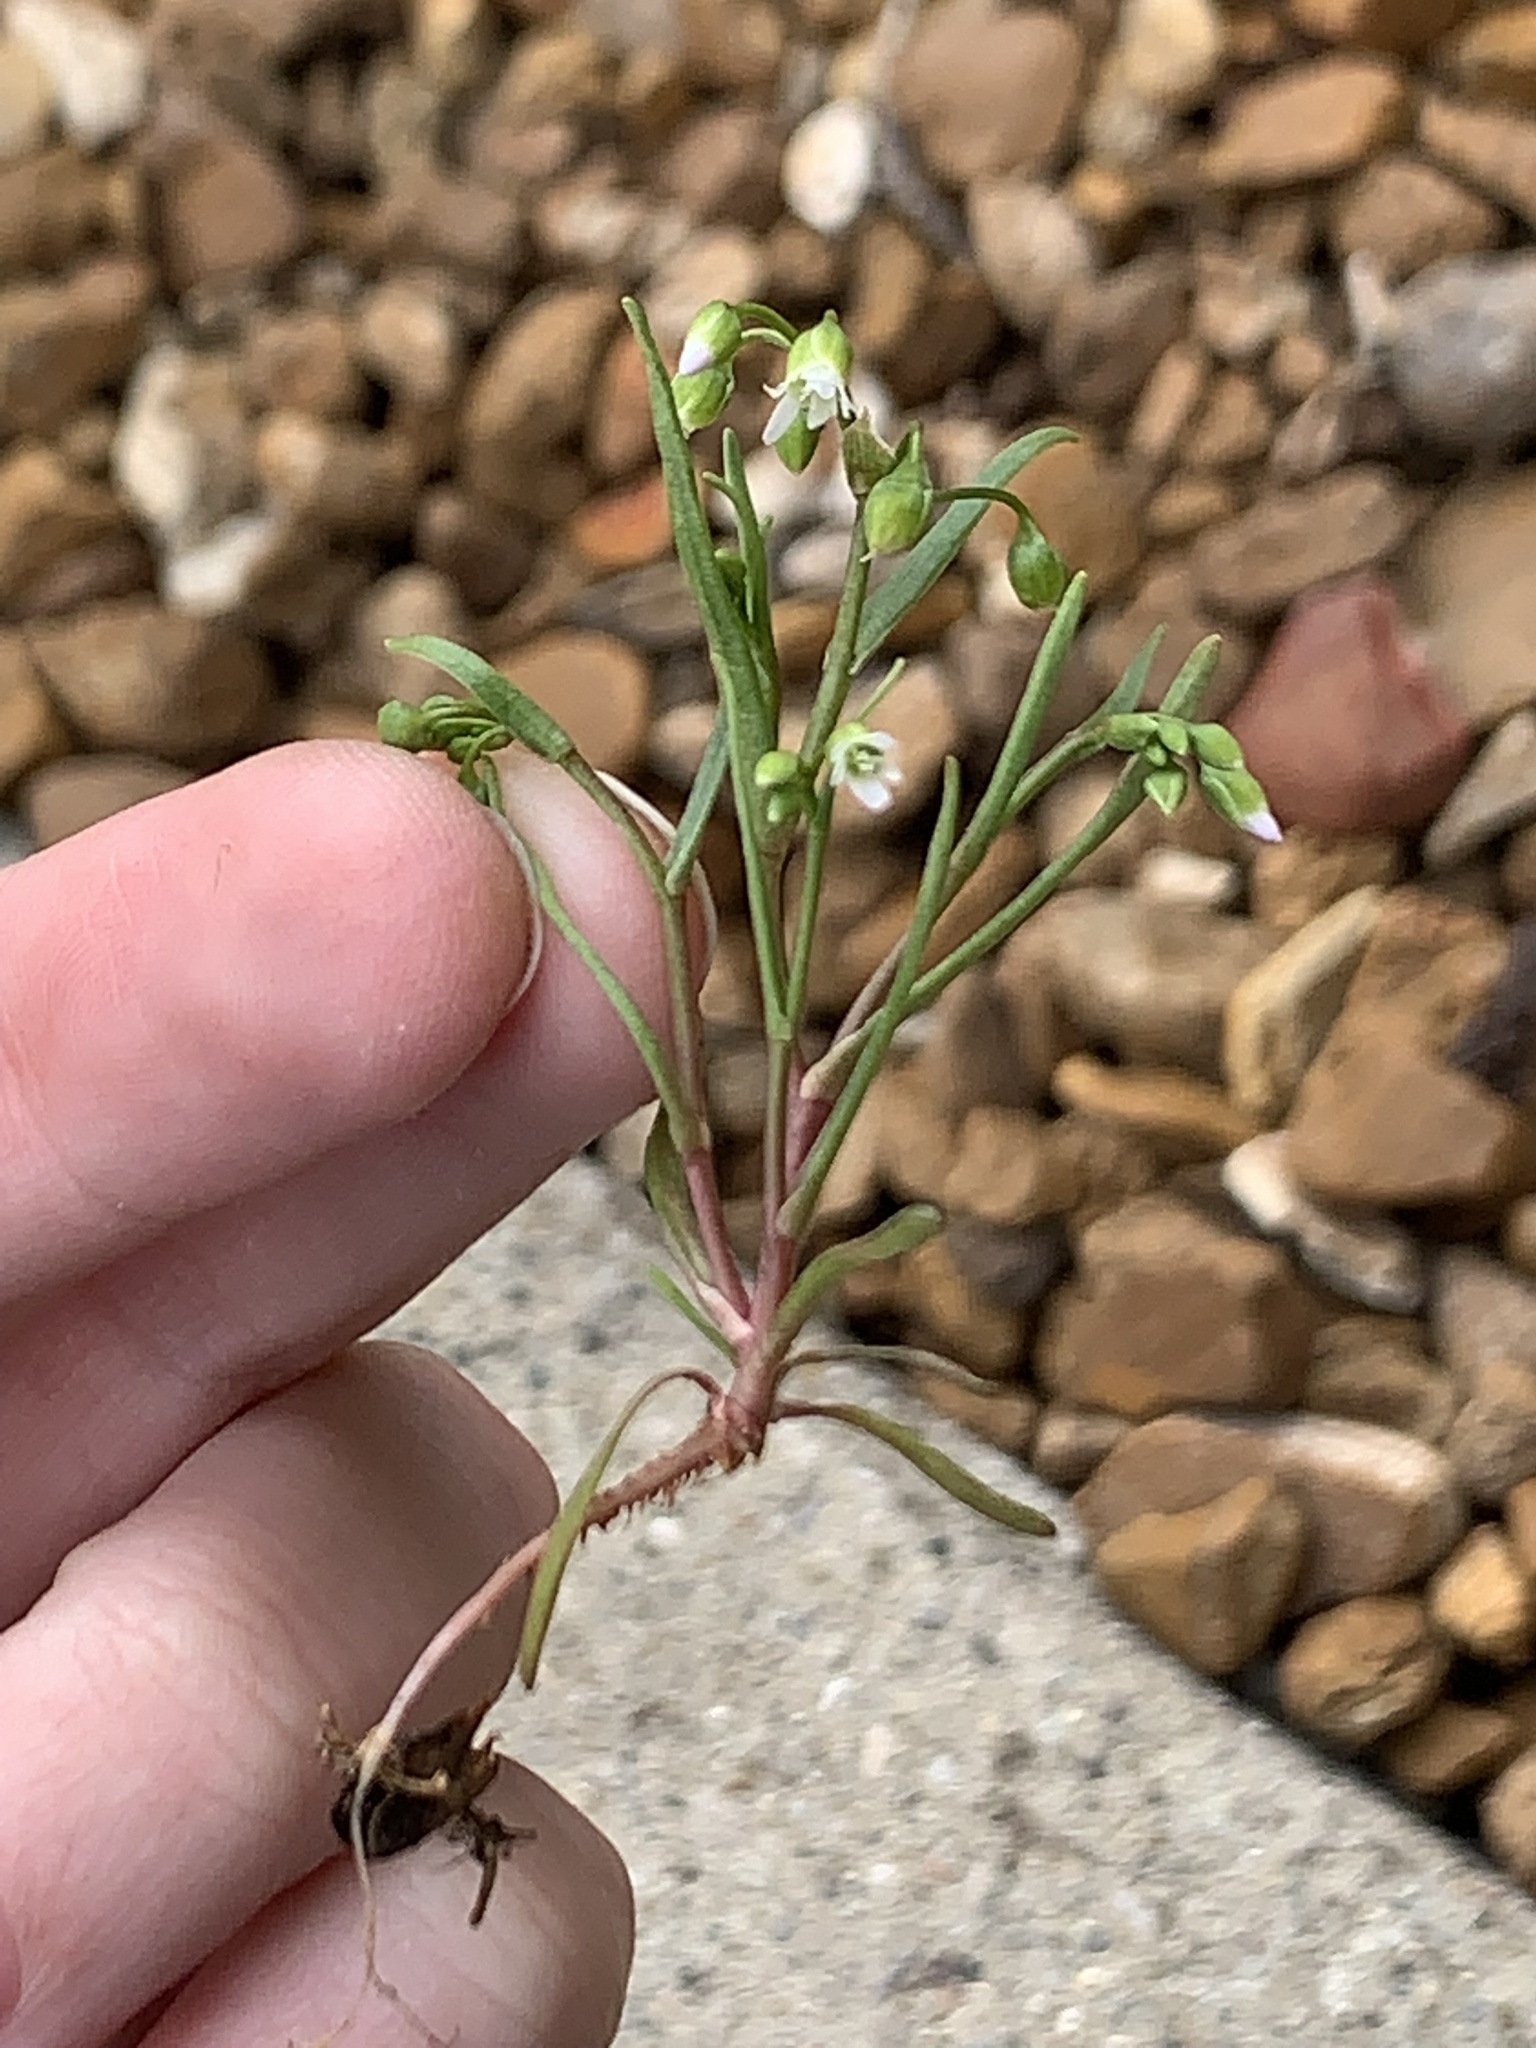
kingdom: Plantae
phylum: Tracheophyta
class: Magnoliopsida
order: Brassicales
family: Brassicaceae
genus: Draba
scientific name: Draba verna
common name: Spring draba
